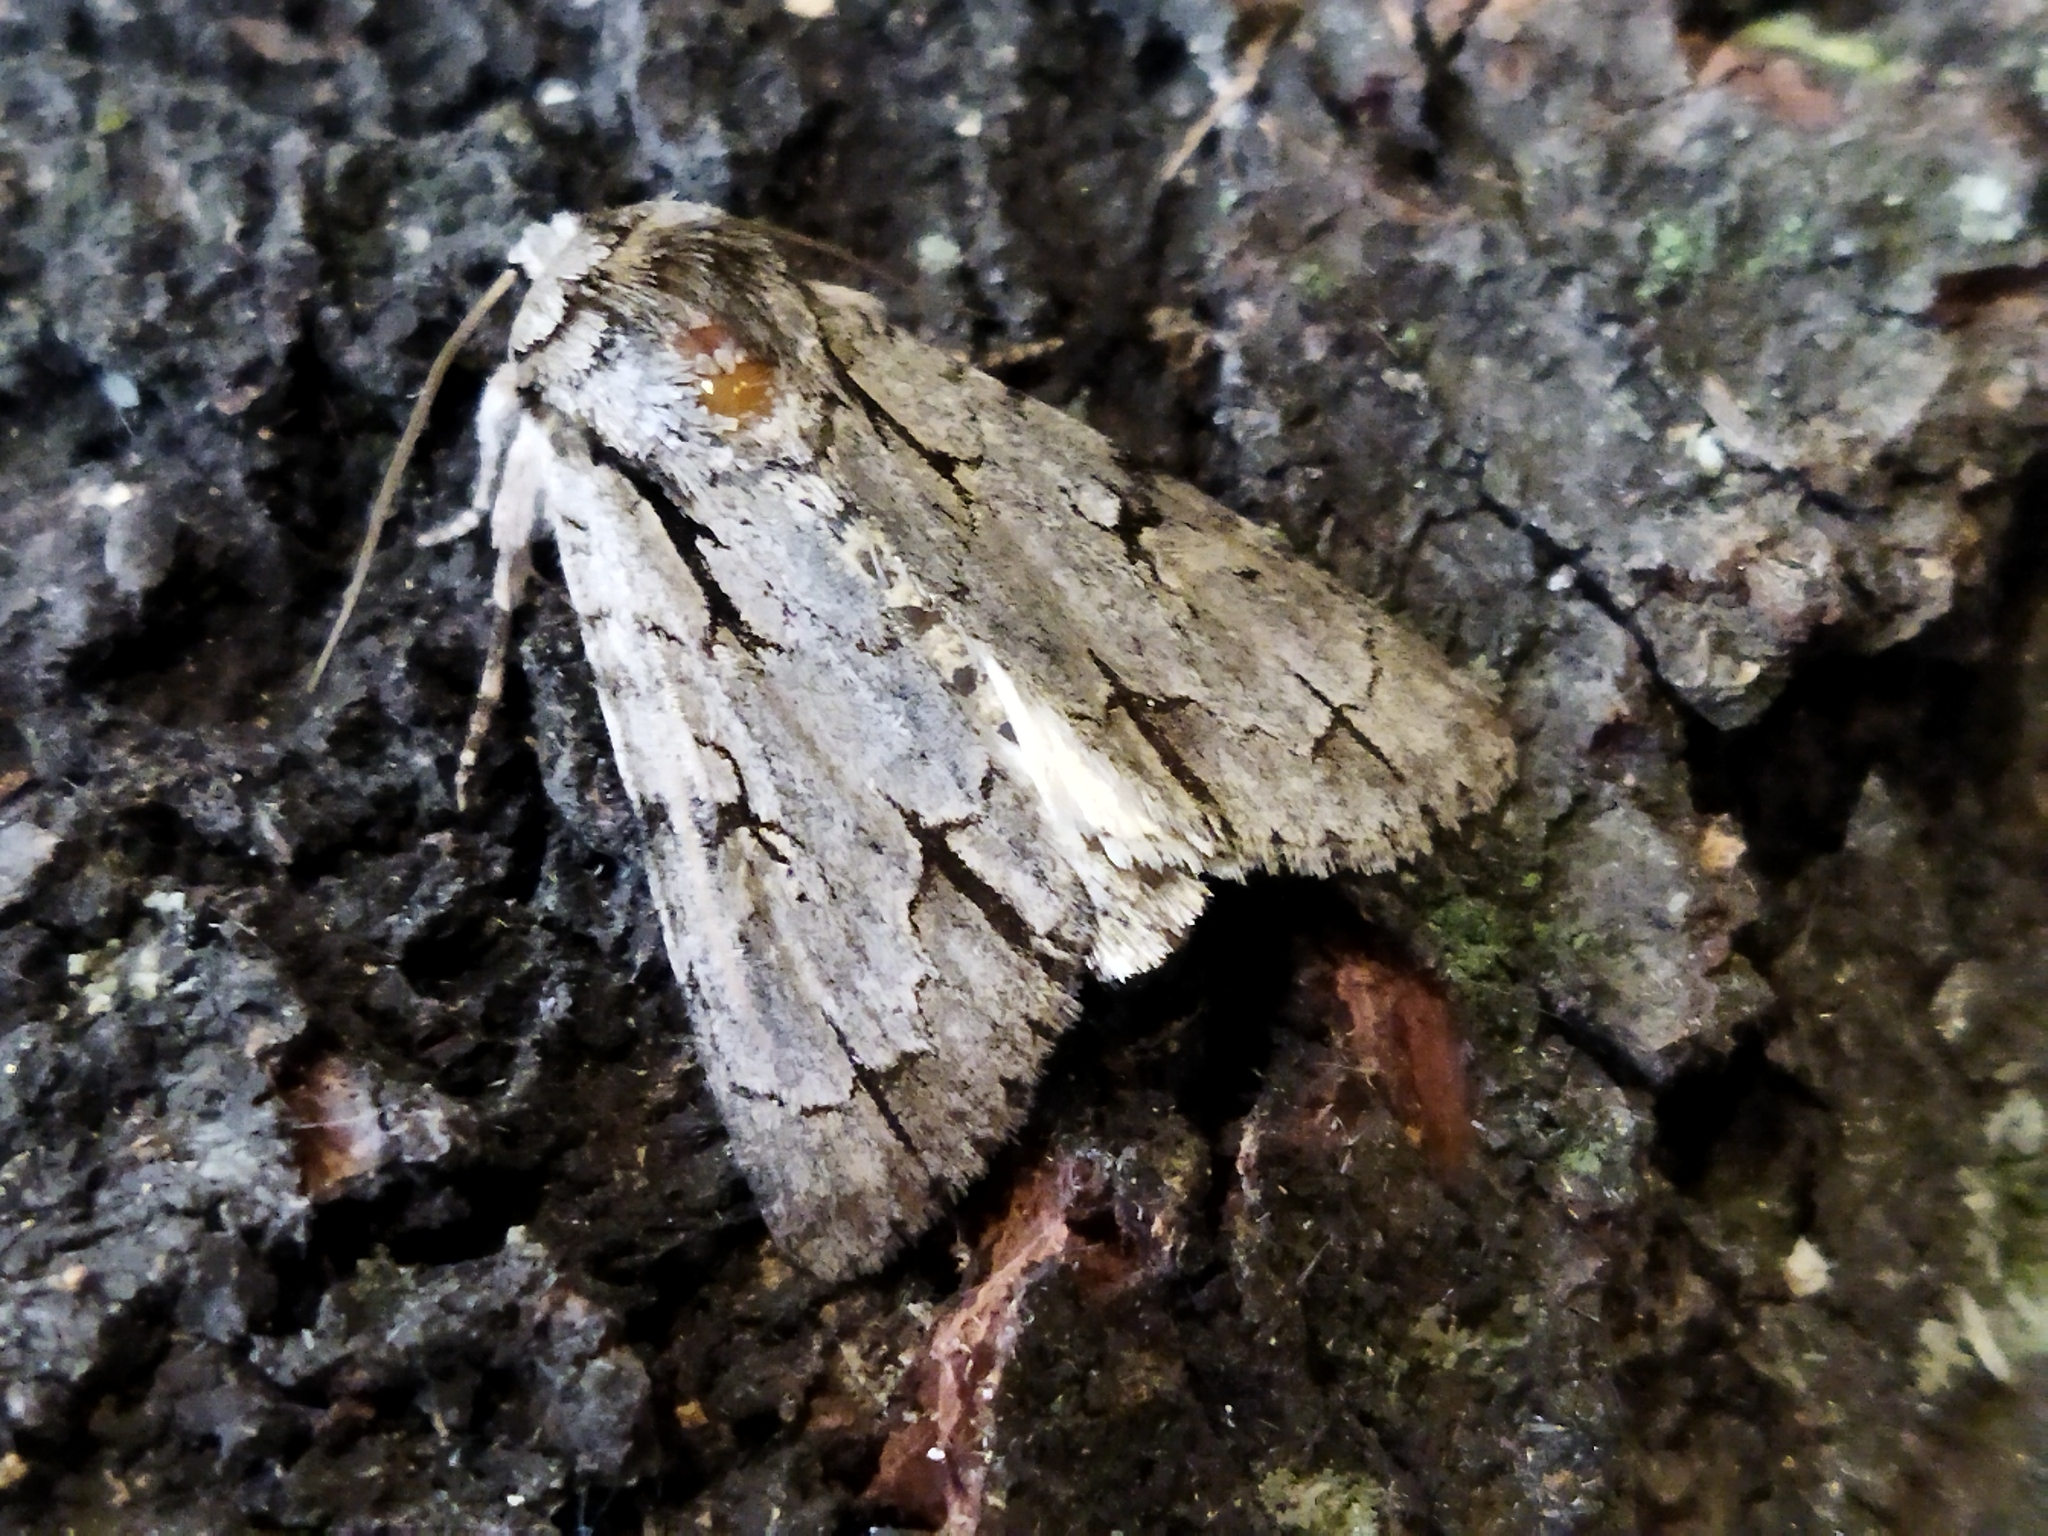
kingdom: Animalia
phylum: Arthropoda
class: Insecta
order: Lepidoptera
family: Noctuidae
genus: Acronicta
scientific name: Acronicta
